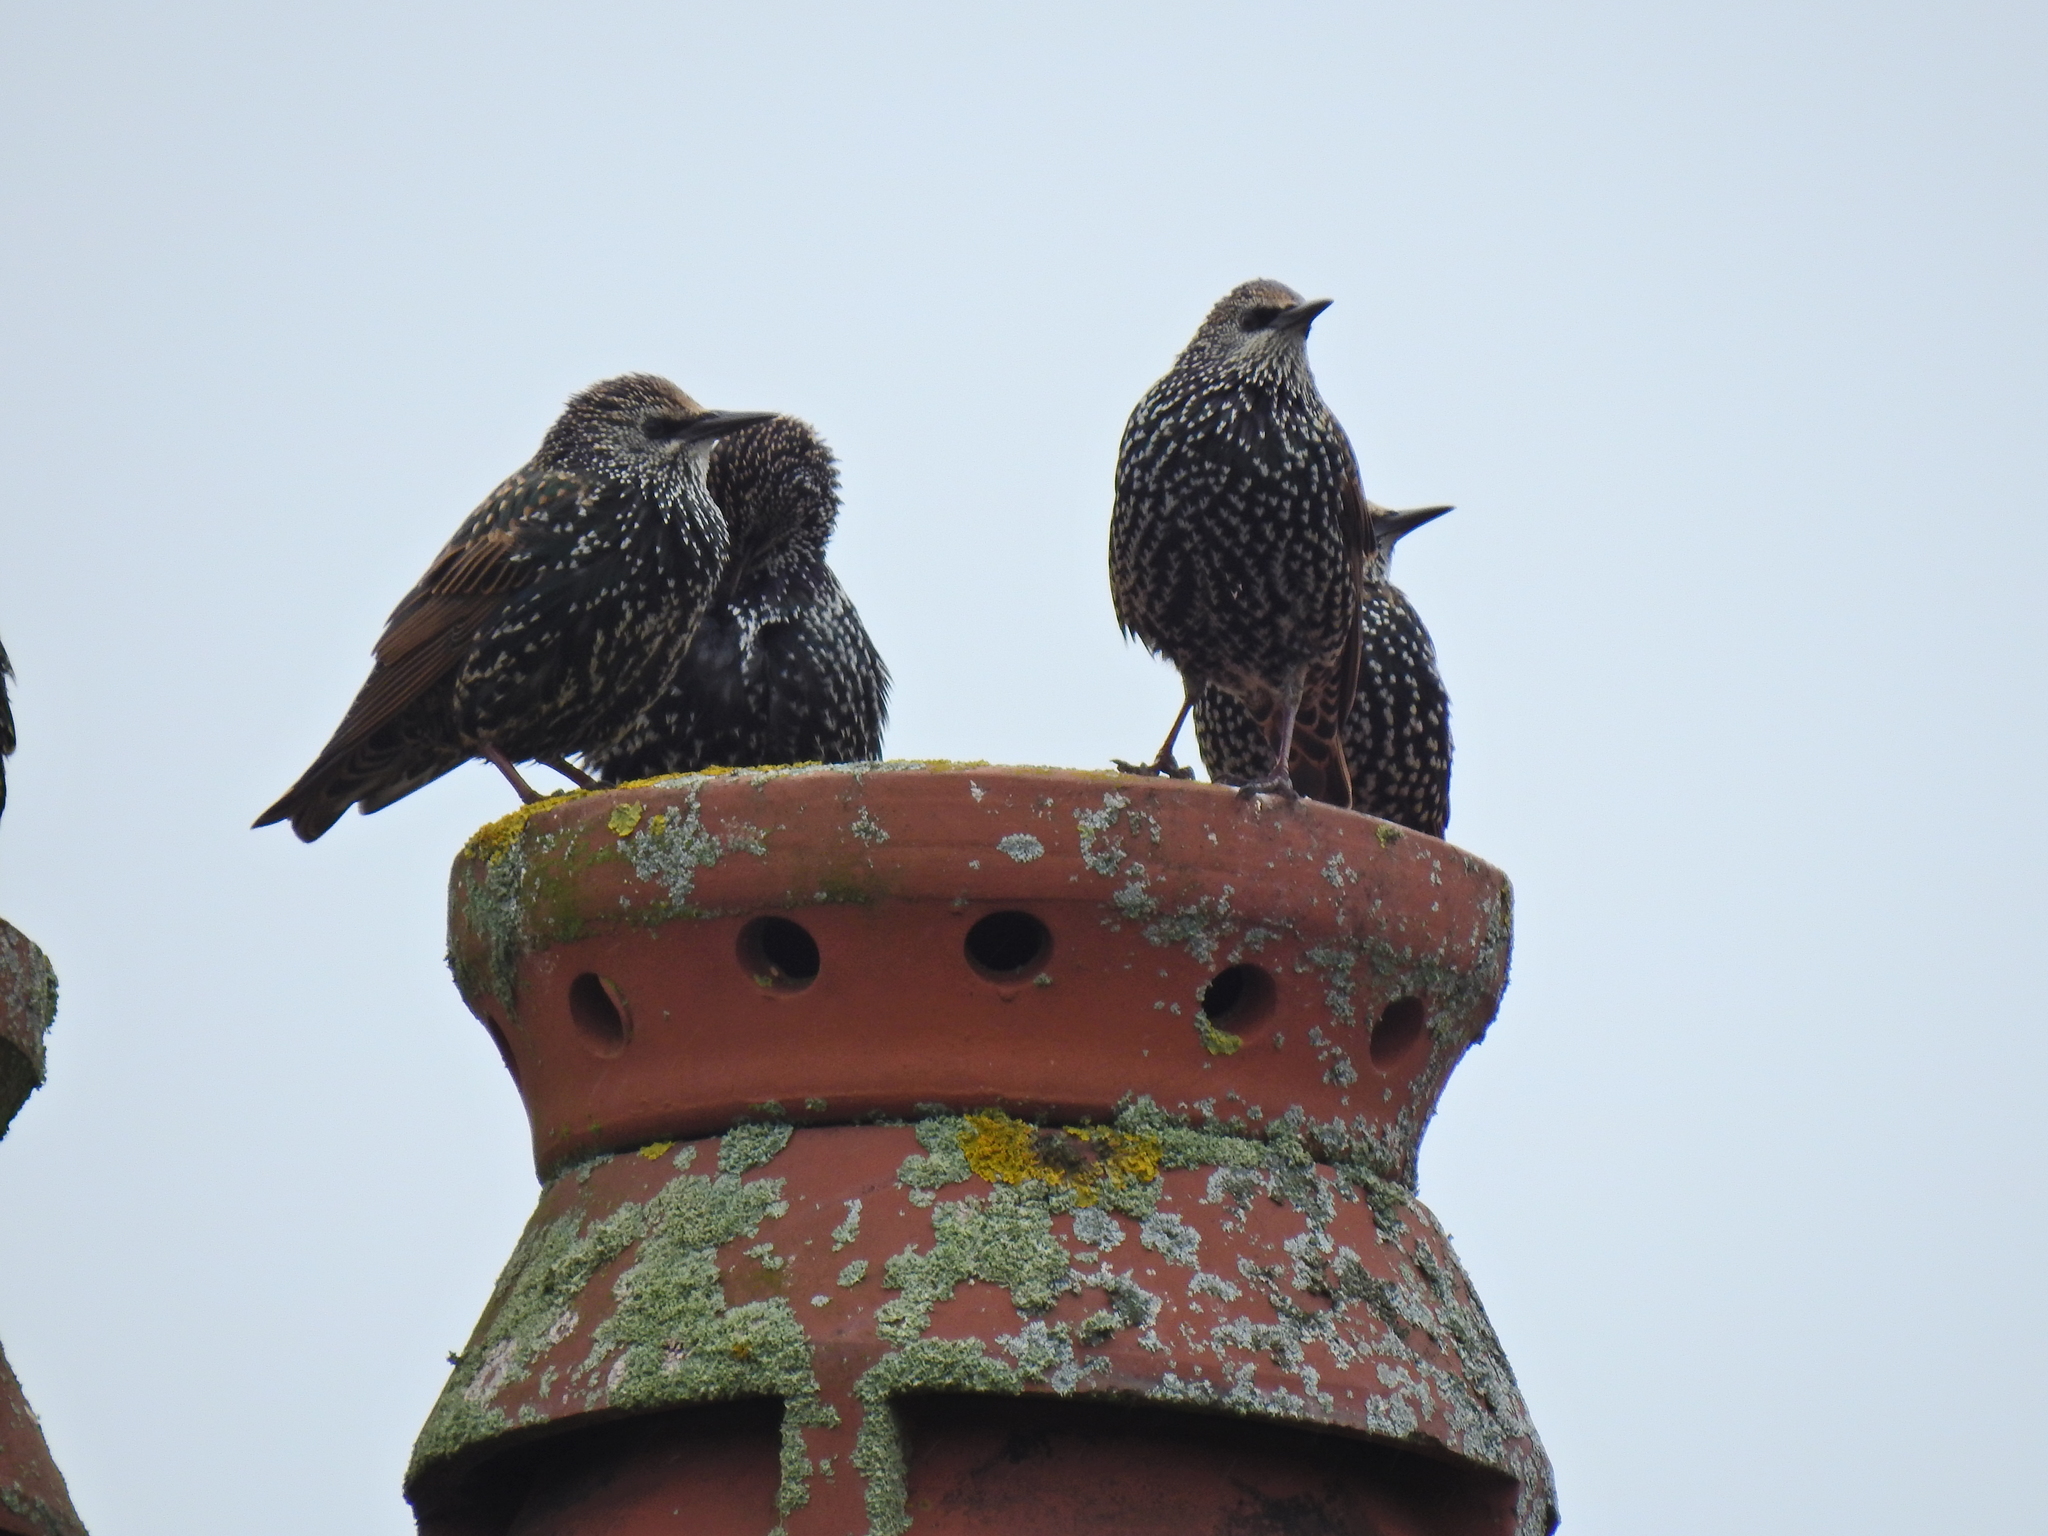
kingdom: Animalia
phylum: Chordata
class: Aves
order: Passeriformes
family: Sturnidae
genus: Sturnus
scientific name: Sturnus vulgaris
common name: Common starling
